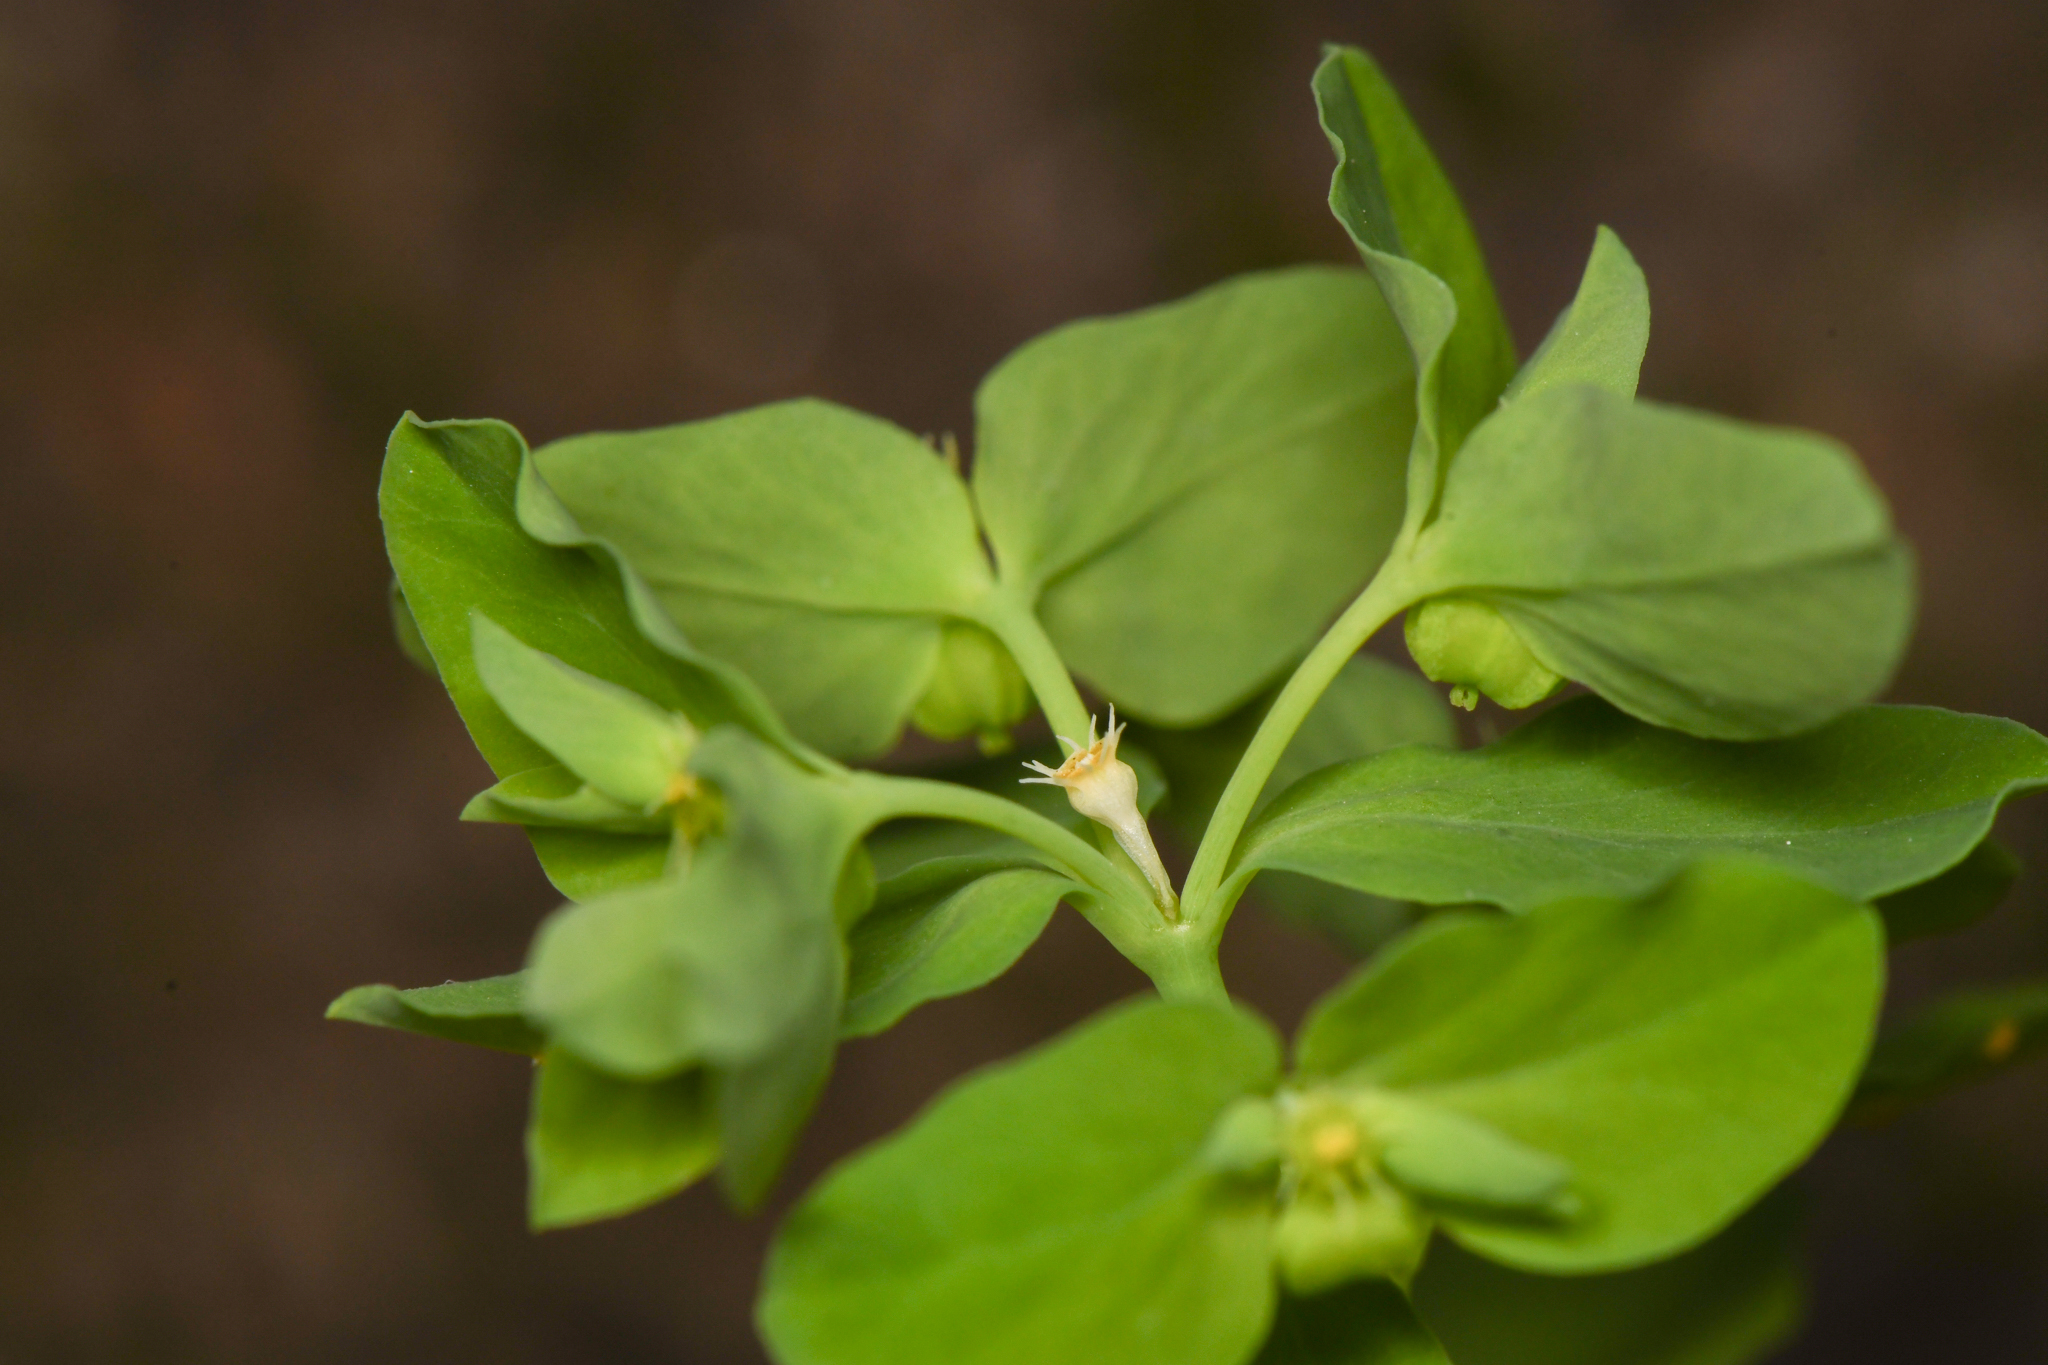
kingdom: Plantae
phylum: Tracheophyta
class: Magnoliopsida
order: Malpighiales
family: Euphorbiaceae
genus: Euphorbia
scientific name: Euphorbia peplus
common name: Petty spurge
